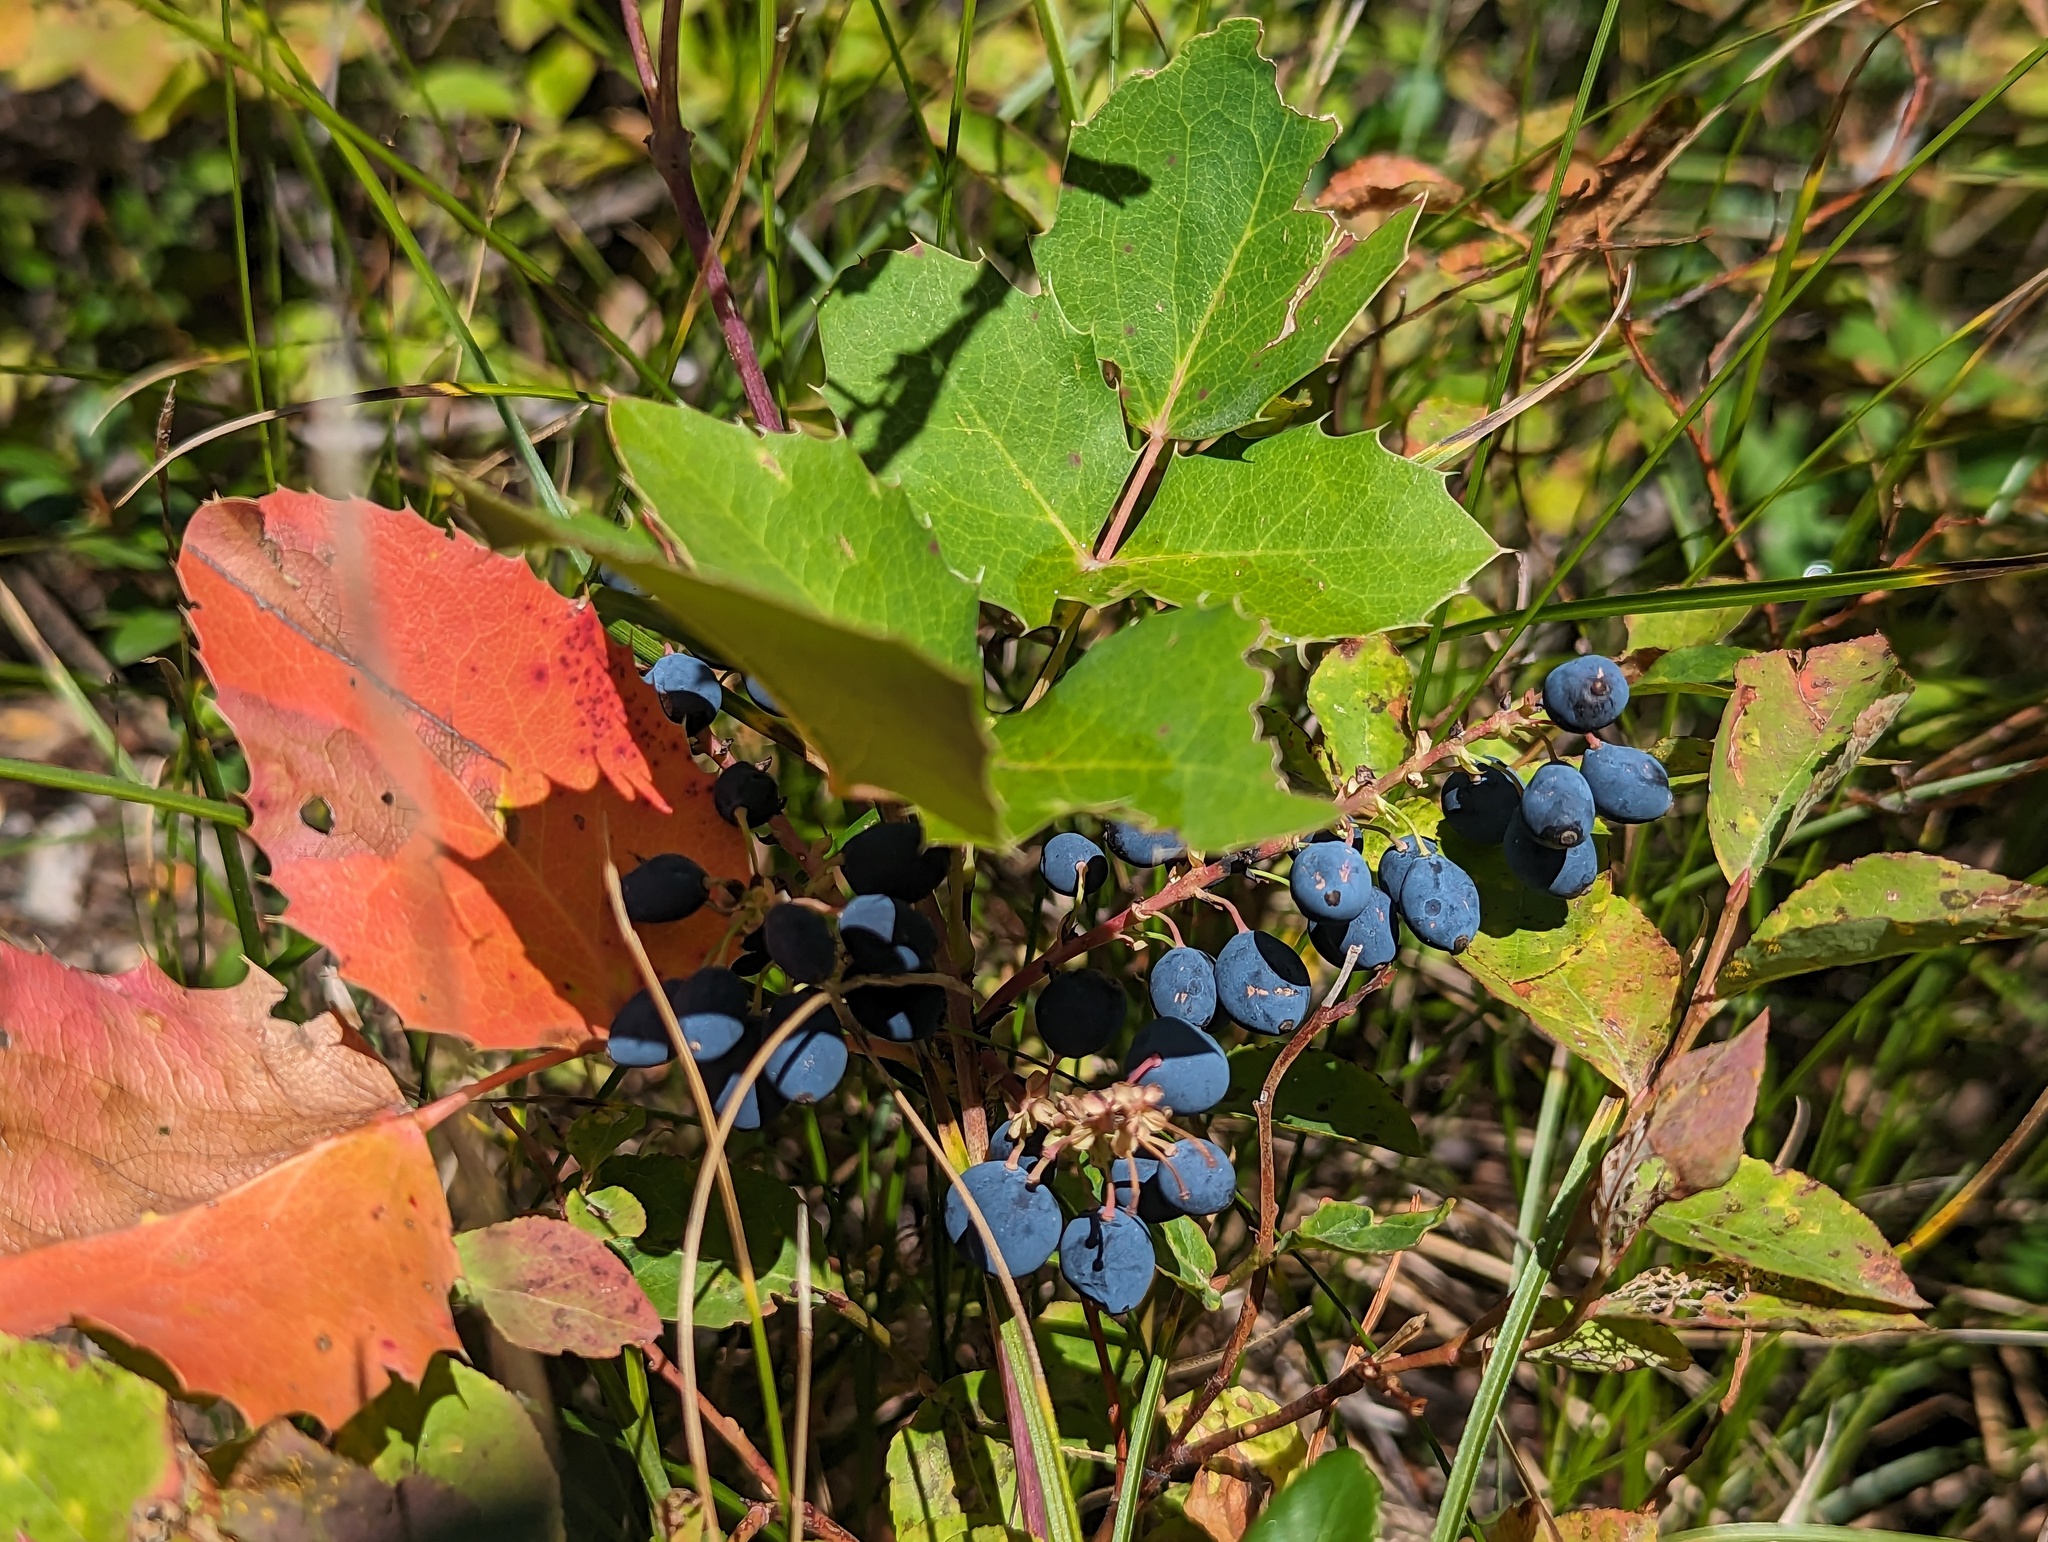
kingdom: Plantae
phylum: Tracheophyta
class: Magnoliopsida
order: Ranunculales
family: Berberidaceae
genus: Mahonia
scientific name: Mahonia repens
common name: Creeping oregon-grape
